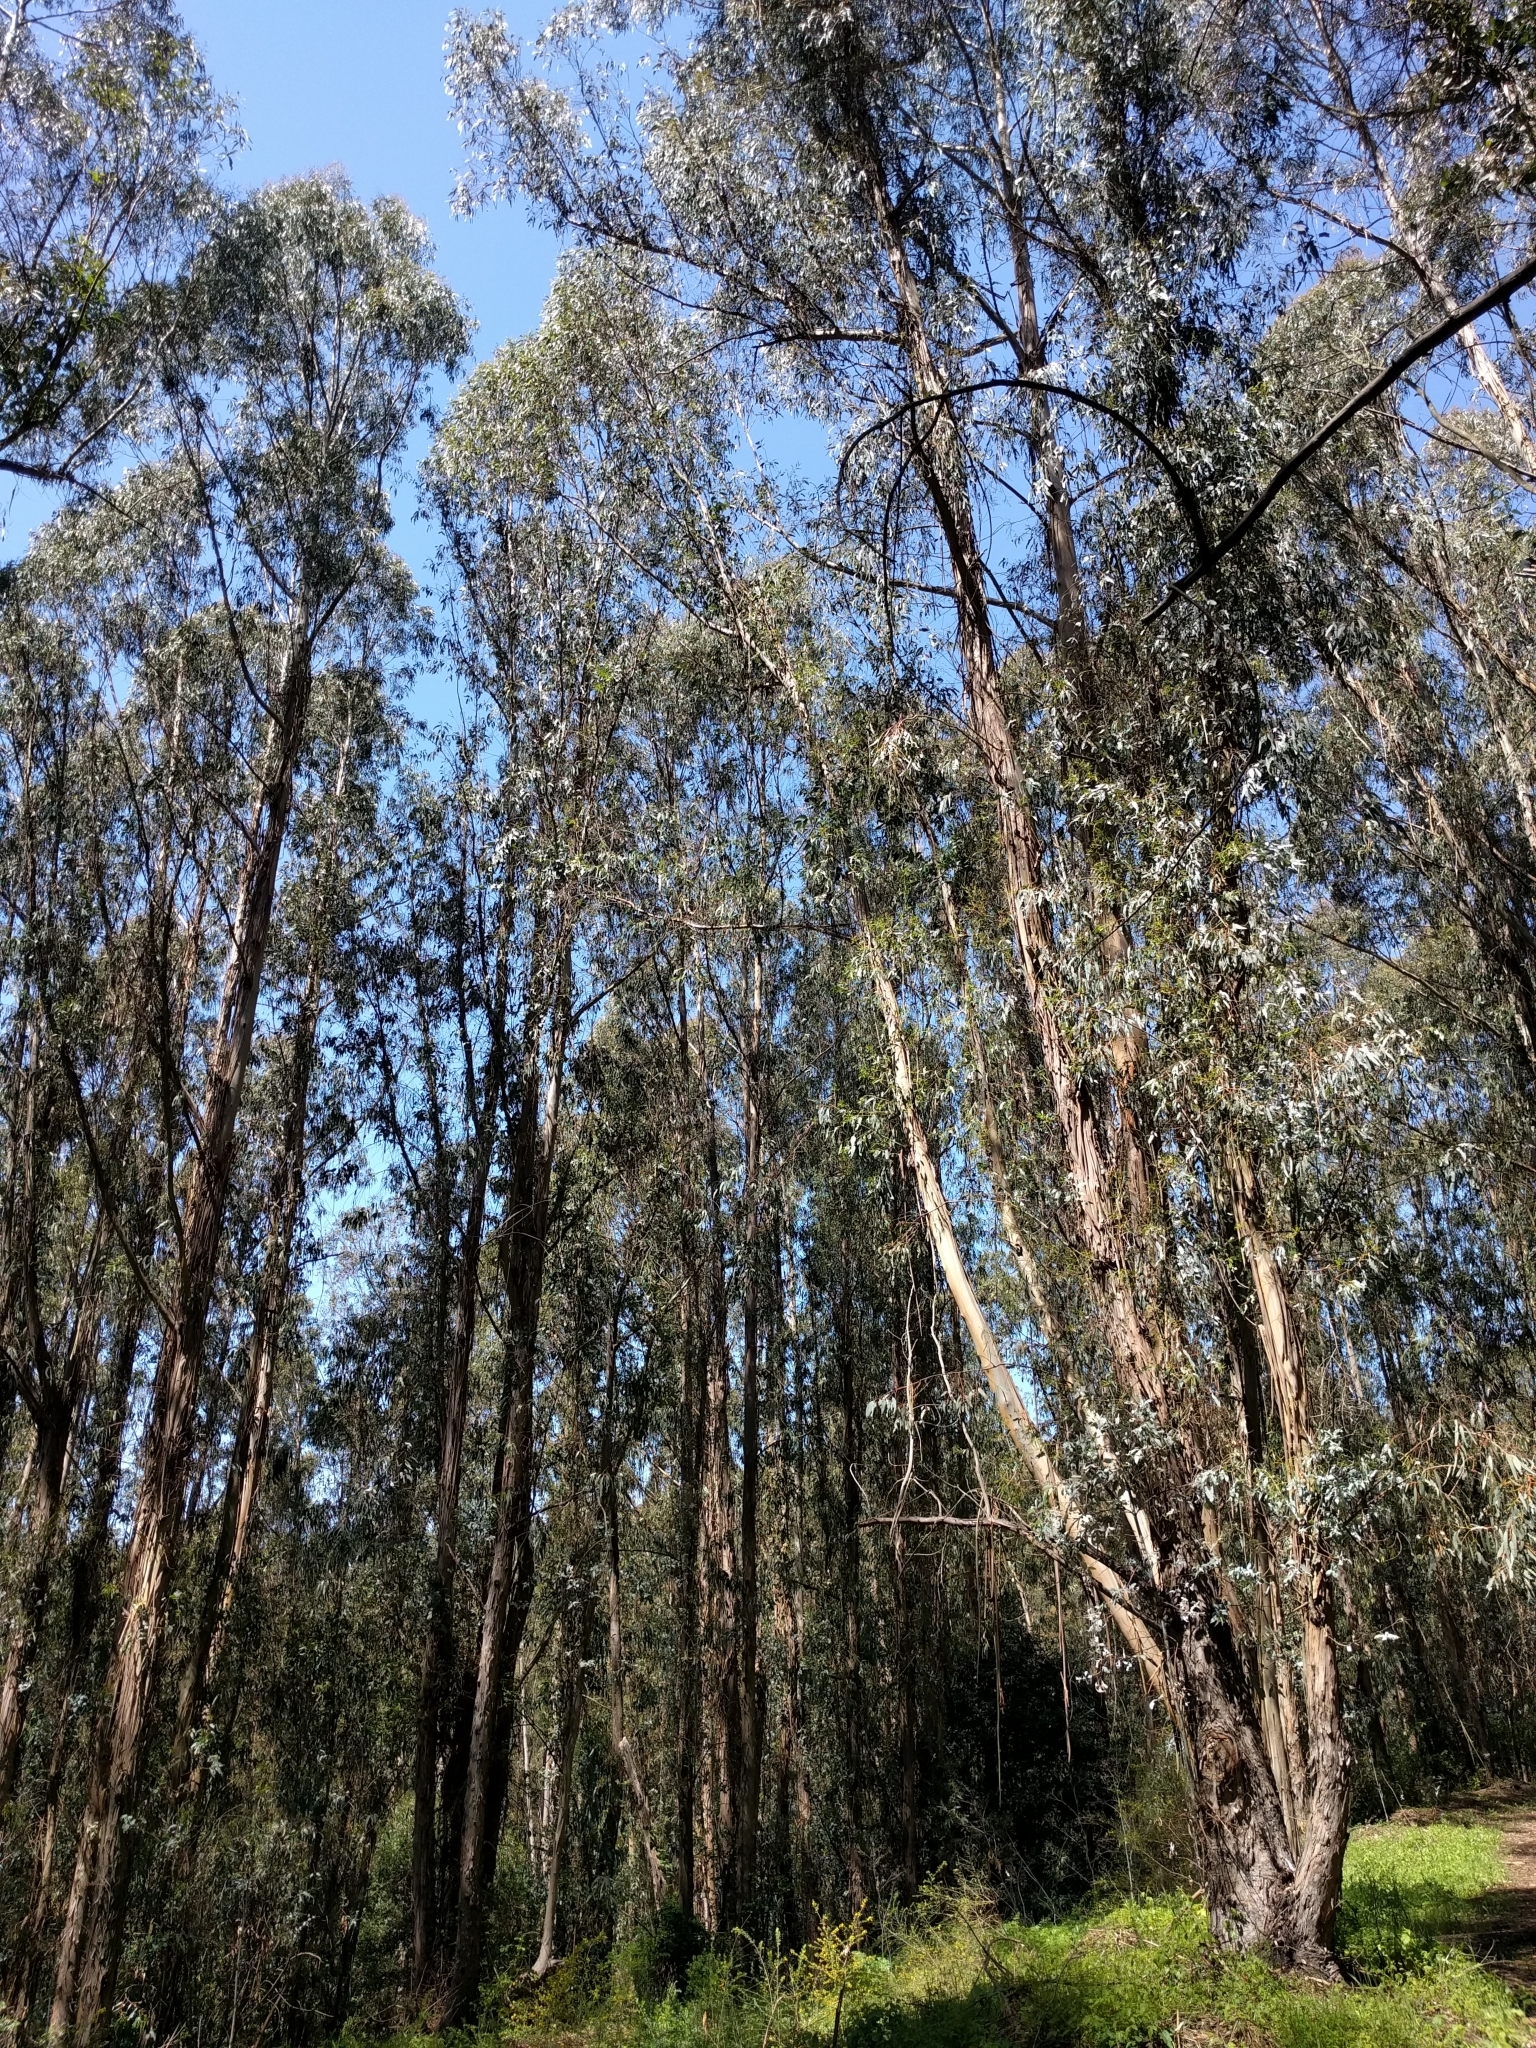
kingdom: Plantae
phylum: Tracheophyta
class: Magnoliopsida
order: Myrtales
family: Myrtaceae
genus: Eucalyptus
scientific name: Eucalyptus globulus
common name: Southern blue-gum
